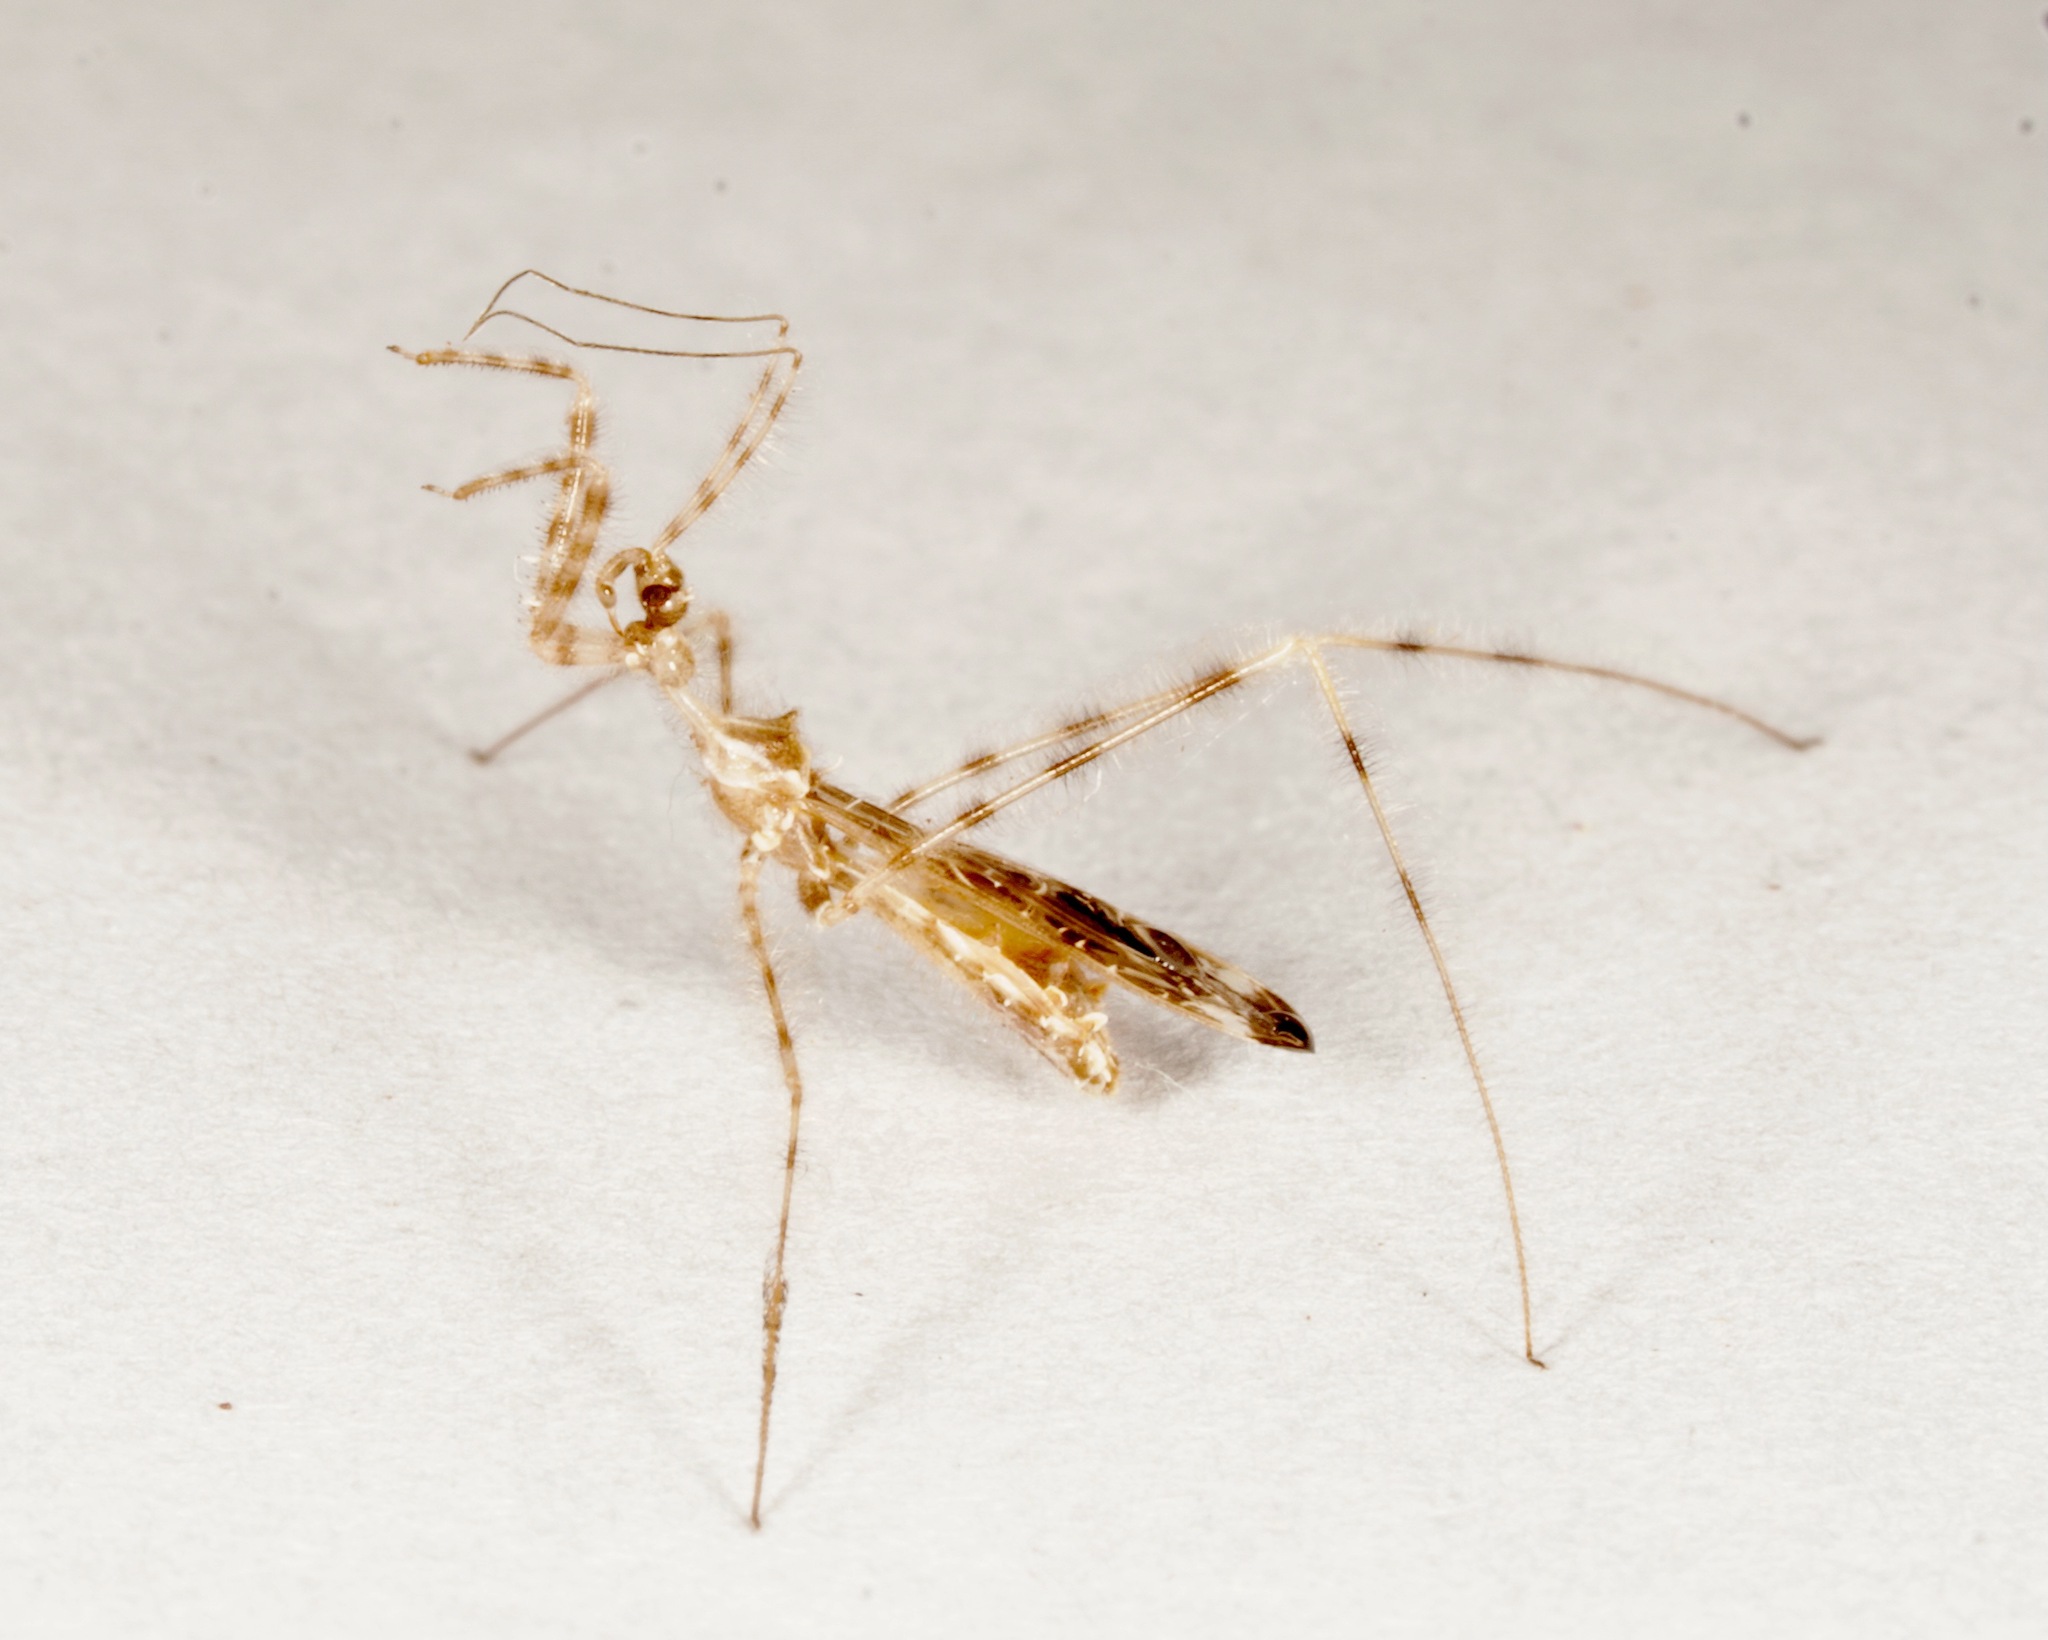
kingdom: Animalia
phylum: Arthropoda
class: Insecta
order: Hemiptera
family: Reduviidae
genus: Stenolemus
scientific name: Stenolemus fraterculus
